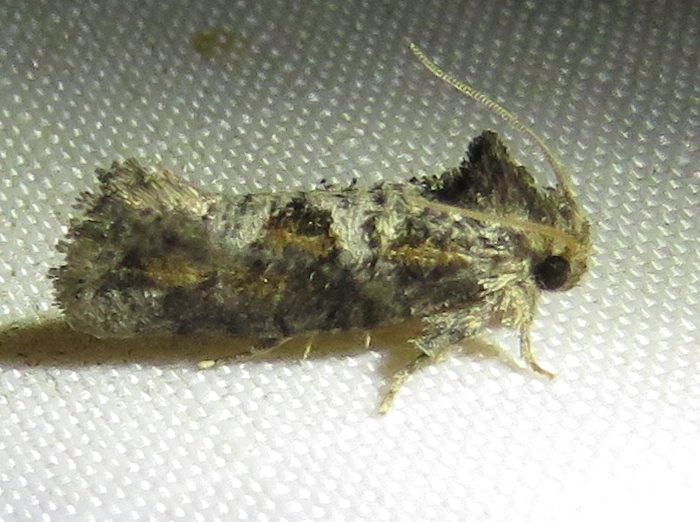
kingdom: Animalia
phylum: Arthropoda
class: Insecta
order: Lepidoptera
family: Tineidae
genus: Acrolophus
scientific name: Acrolophus piger
